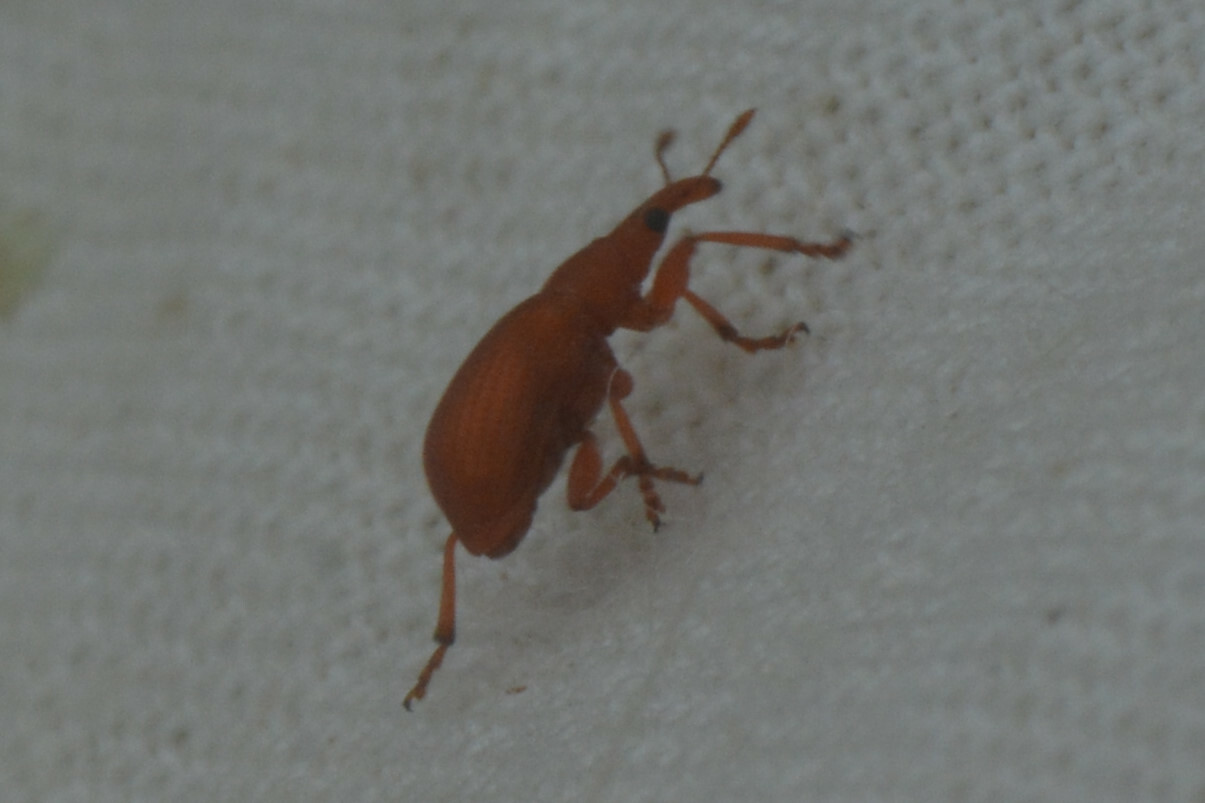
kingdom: Animalia
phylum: Arthropoda
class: Insecta
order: Coleoptera
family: Apionidae
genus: Apion
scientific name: Apion frumentarium
